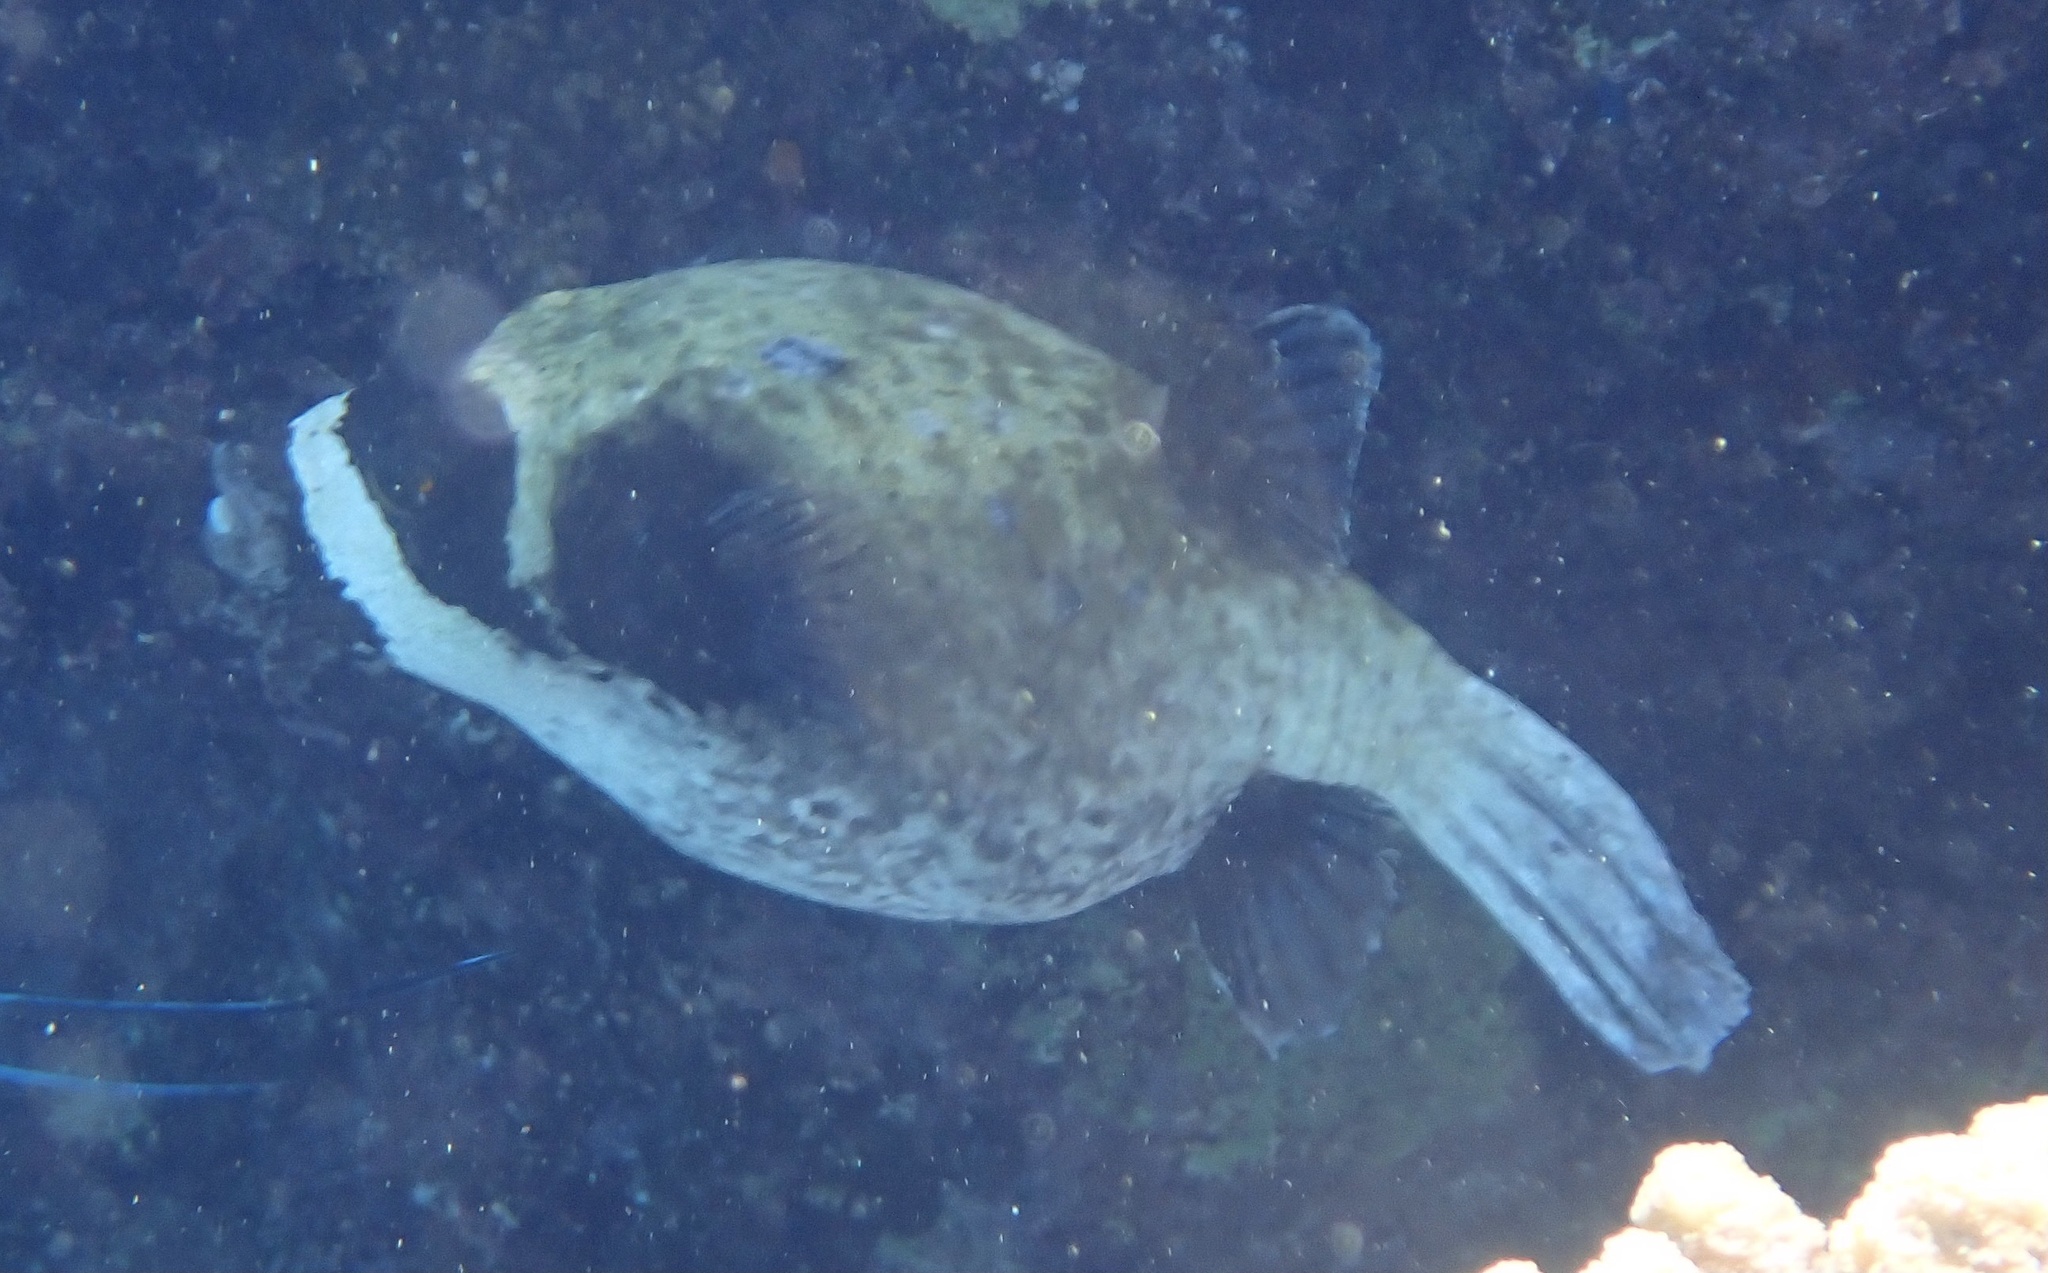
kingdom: Animalia
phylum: Chordata
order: Tetraodontiformes
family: Tetraodontidae
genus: Arothron
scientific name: Arothron diadematus
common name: Masked puffer
